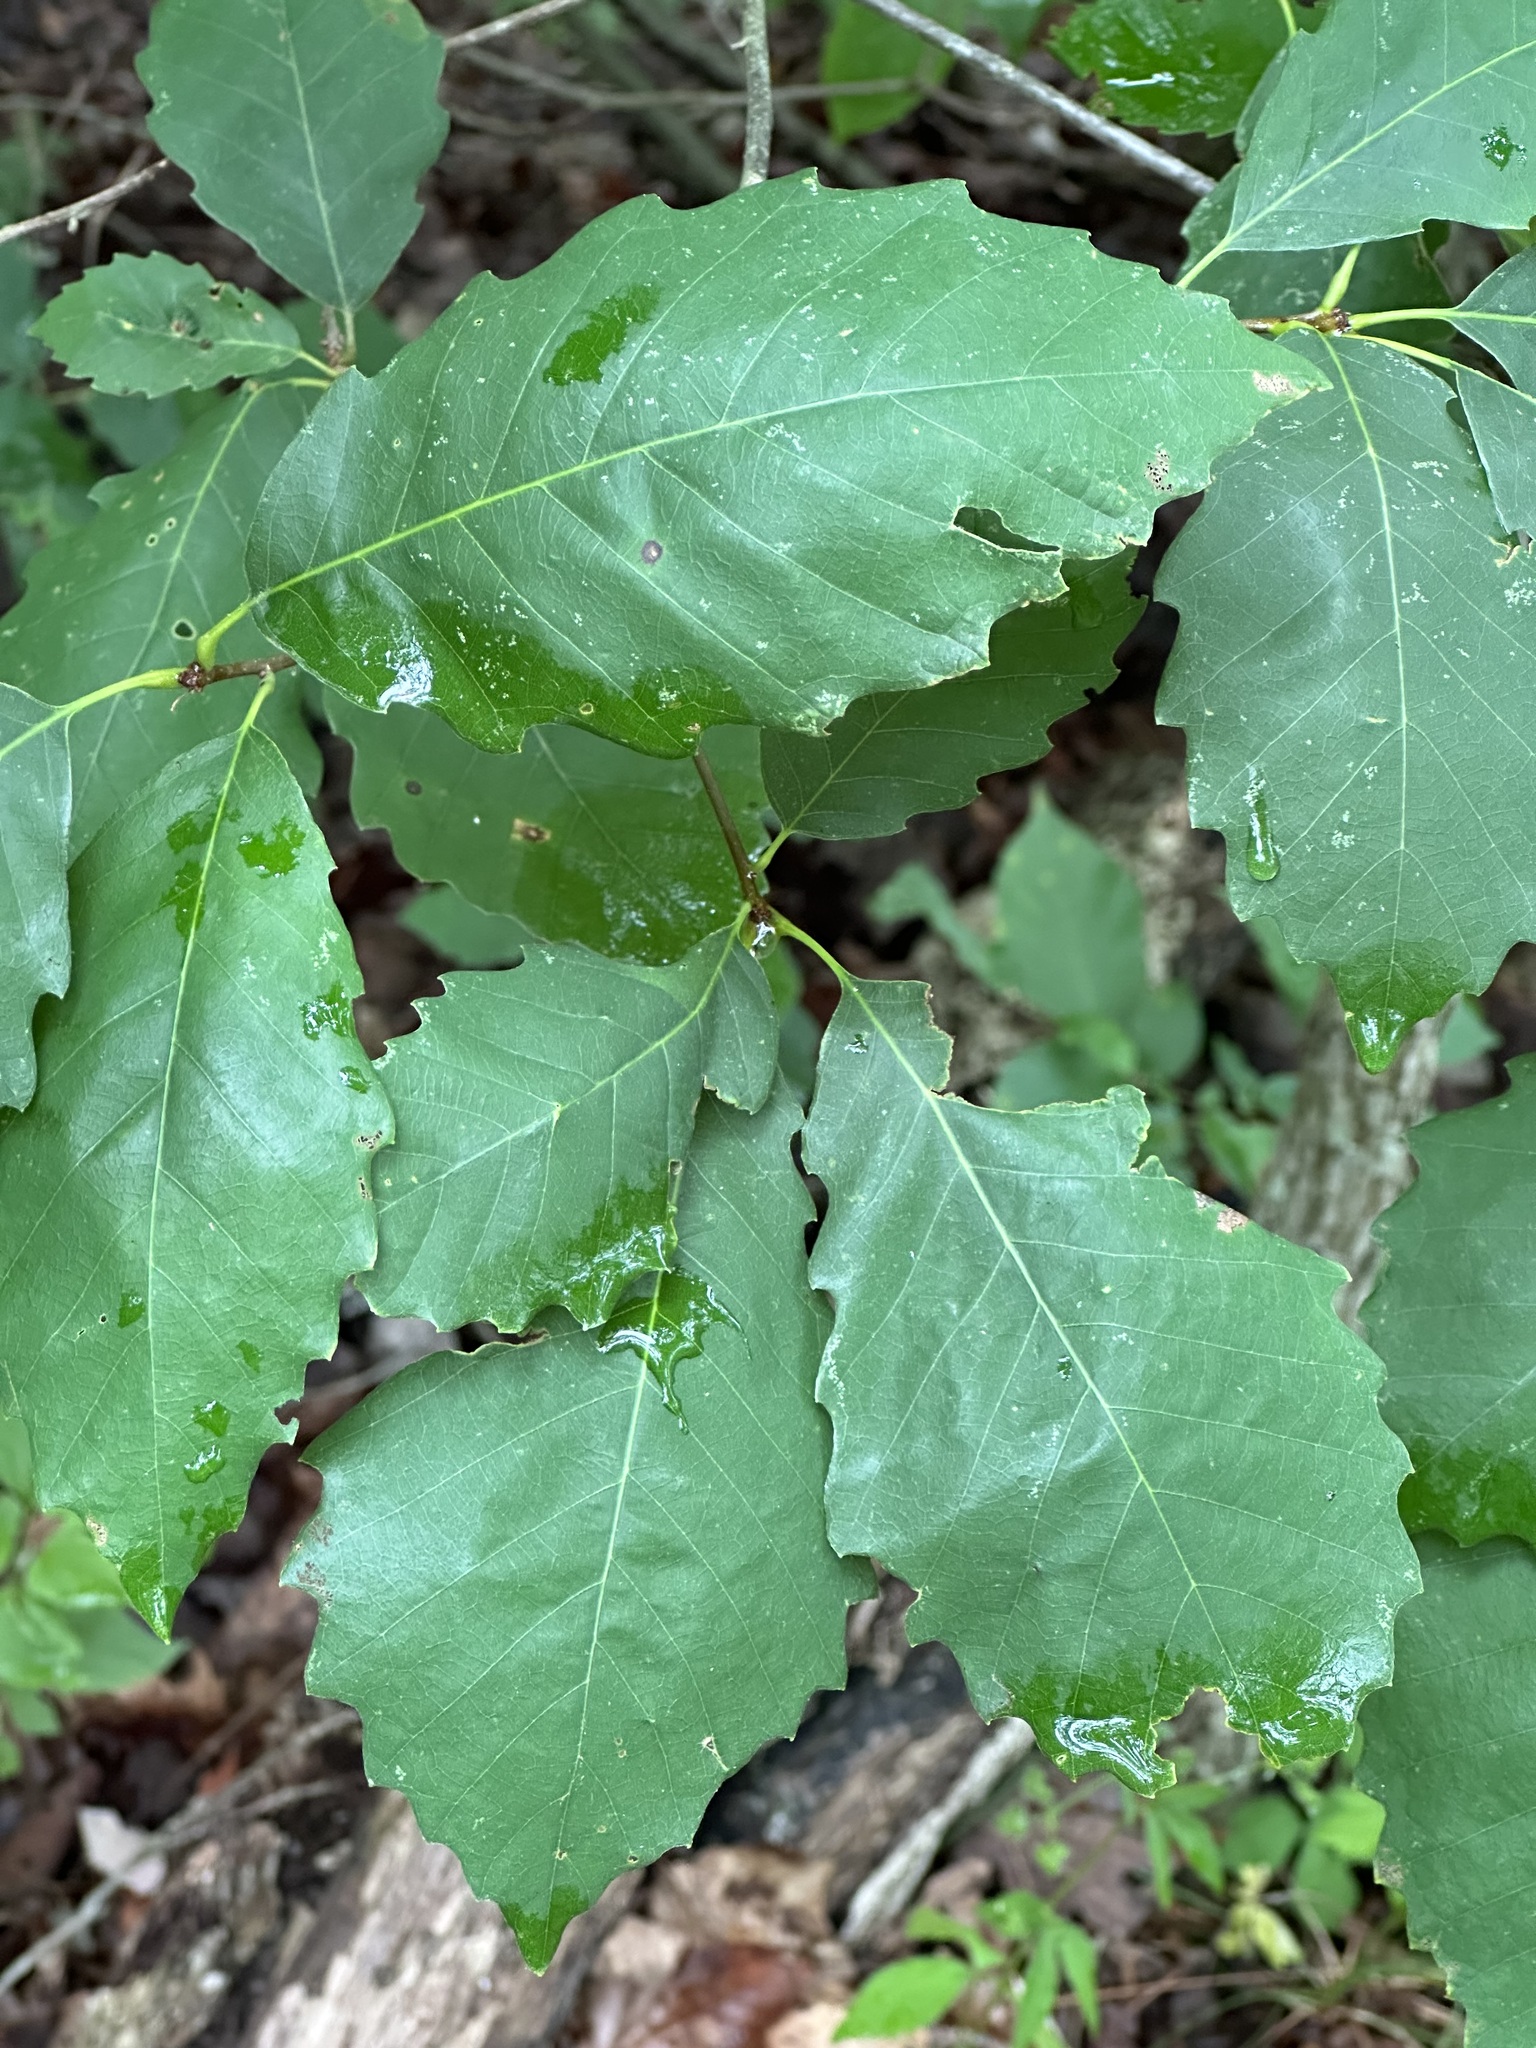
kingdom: Plantae
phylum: Tracheophyta
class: Magnoliopsida
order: Fagales
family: Fagaceae
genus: Quercus
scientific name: Quercus muehlenbergii
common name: Chinkapin oak
